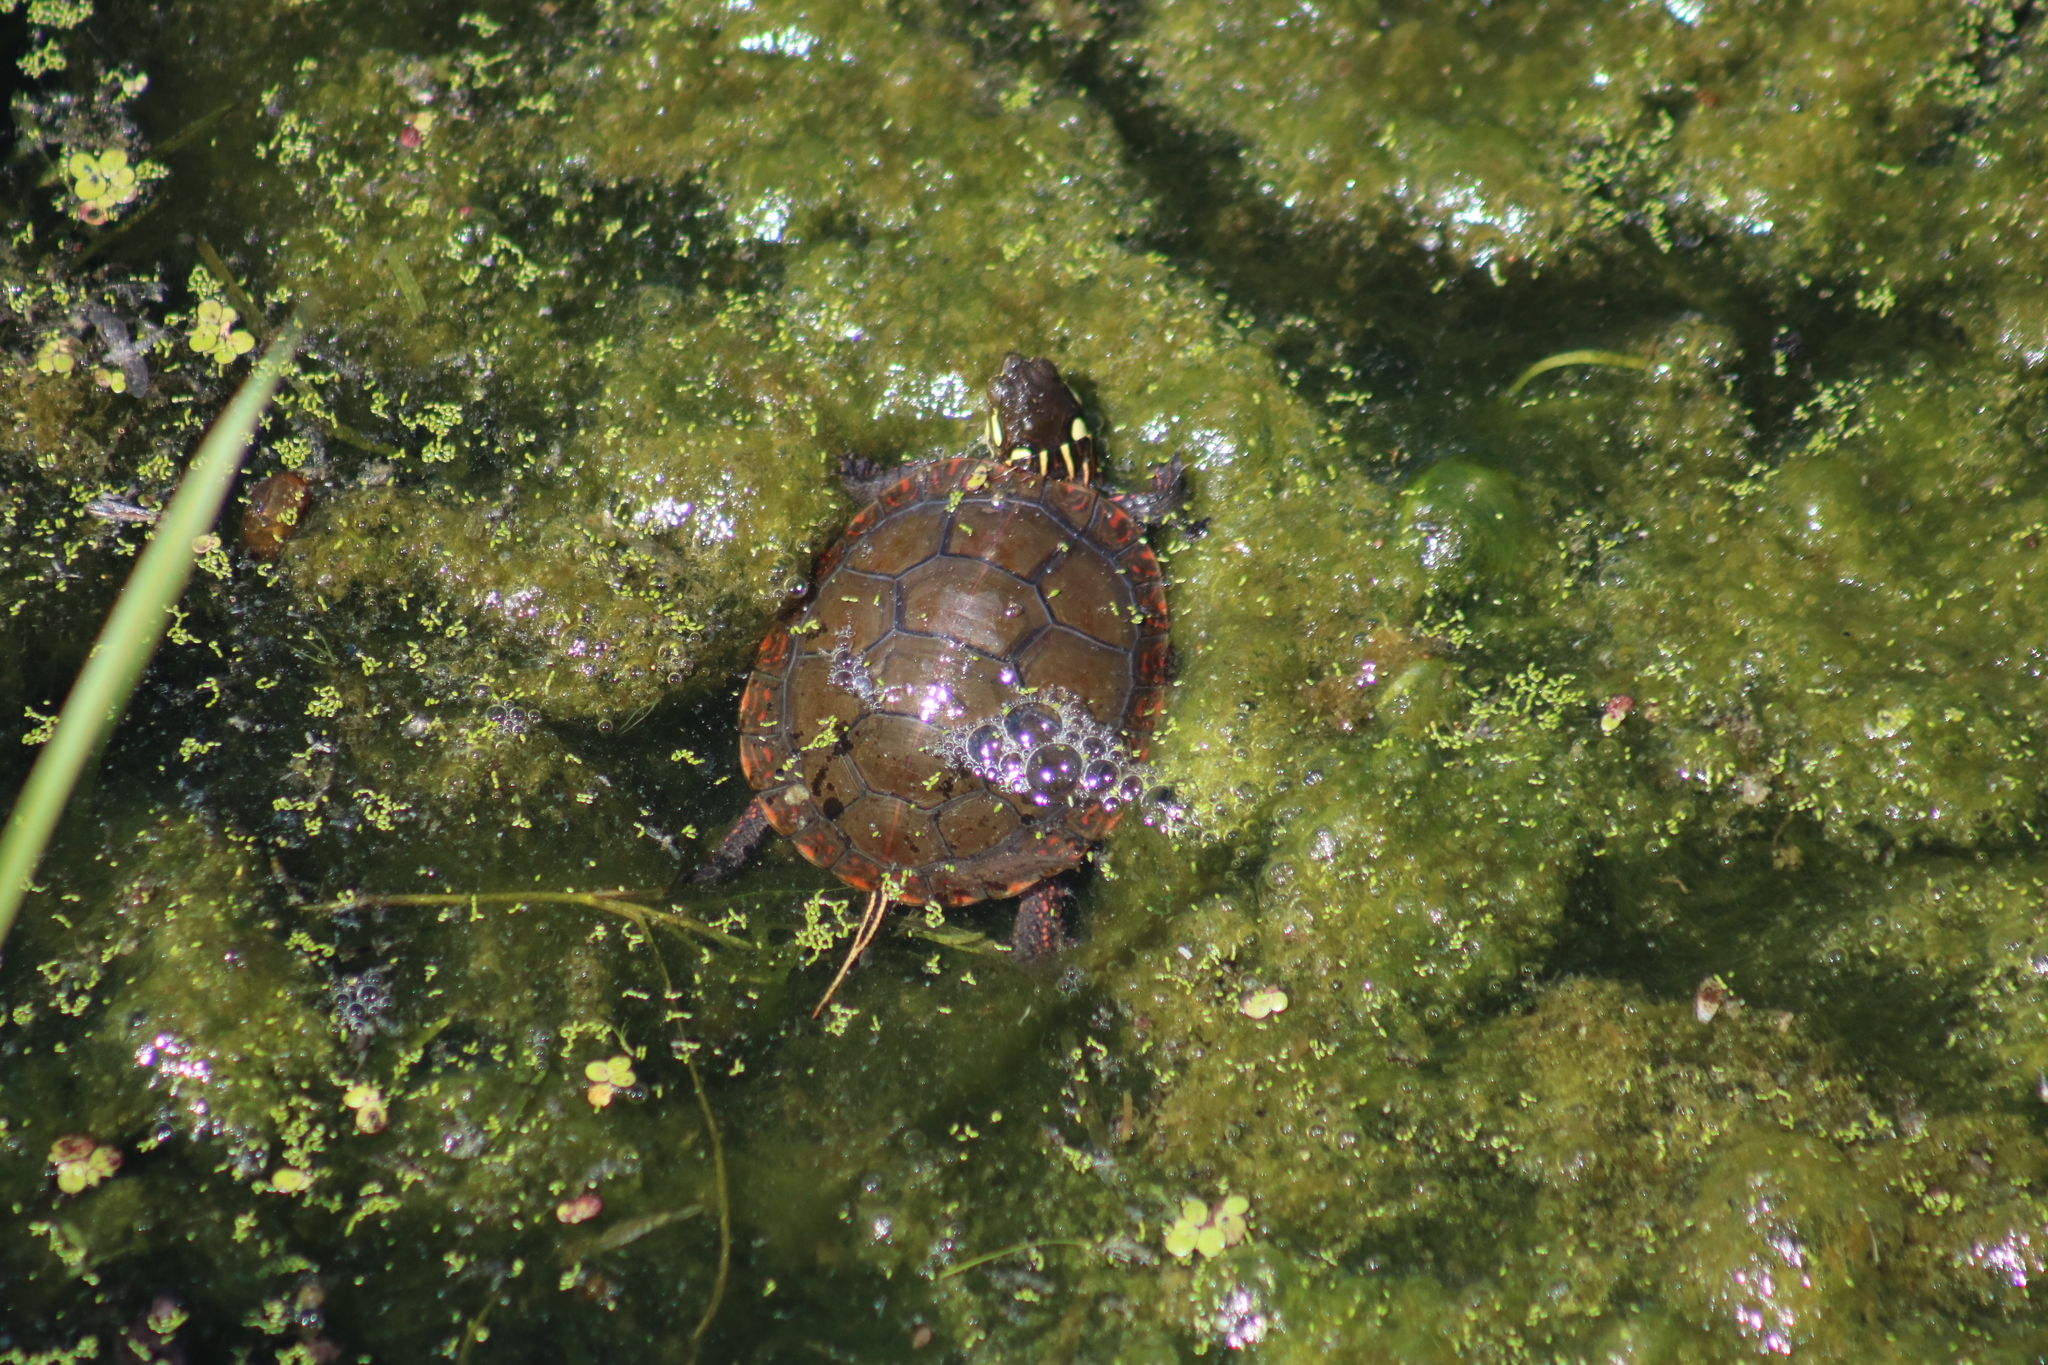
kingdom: Animalia
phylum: Chordata
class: Testudines
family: Emydidae
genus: Chrysemys
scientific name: Chrysemys picta
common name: Painted turtle
